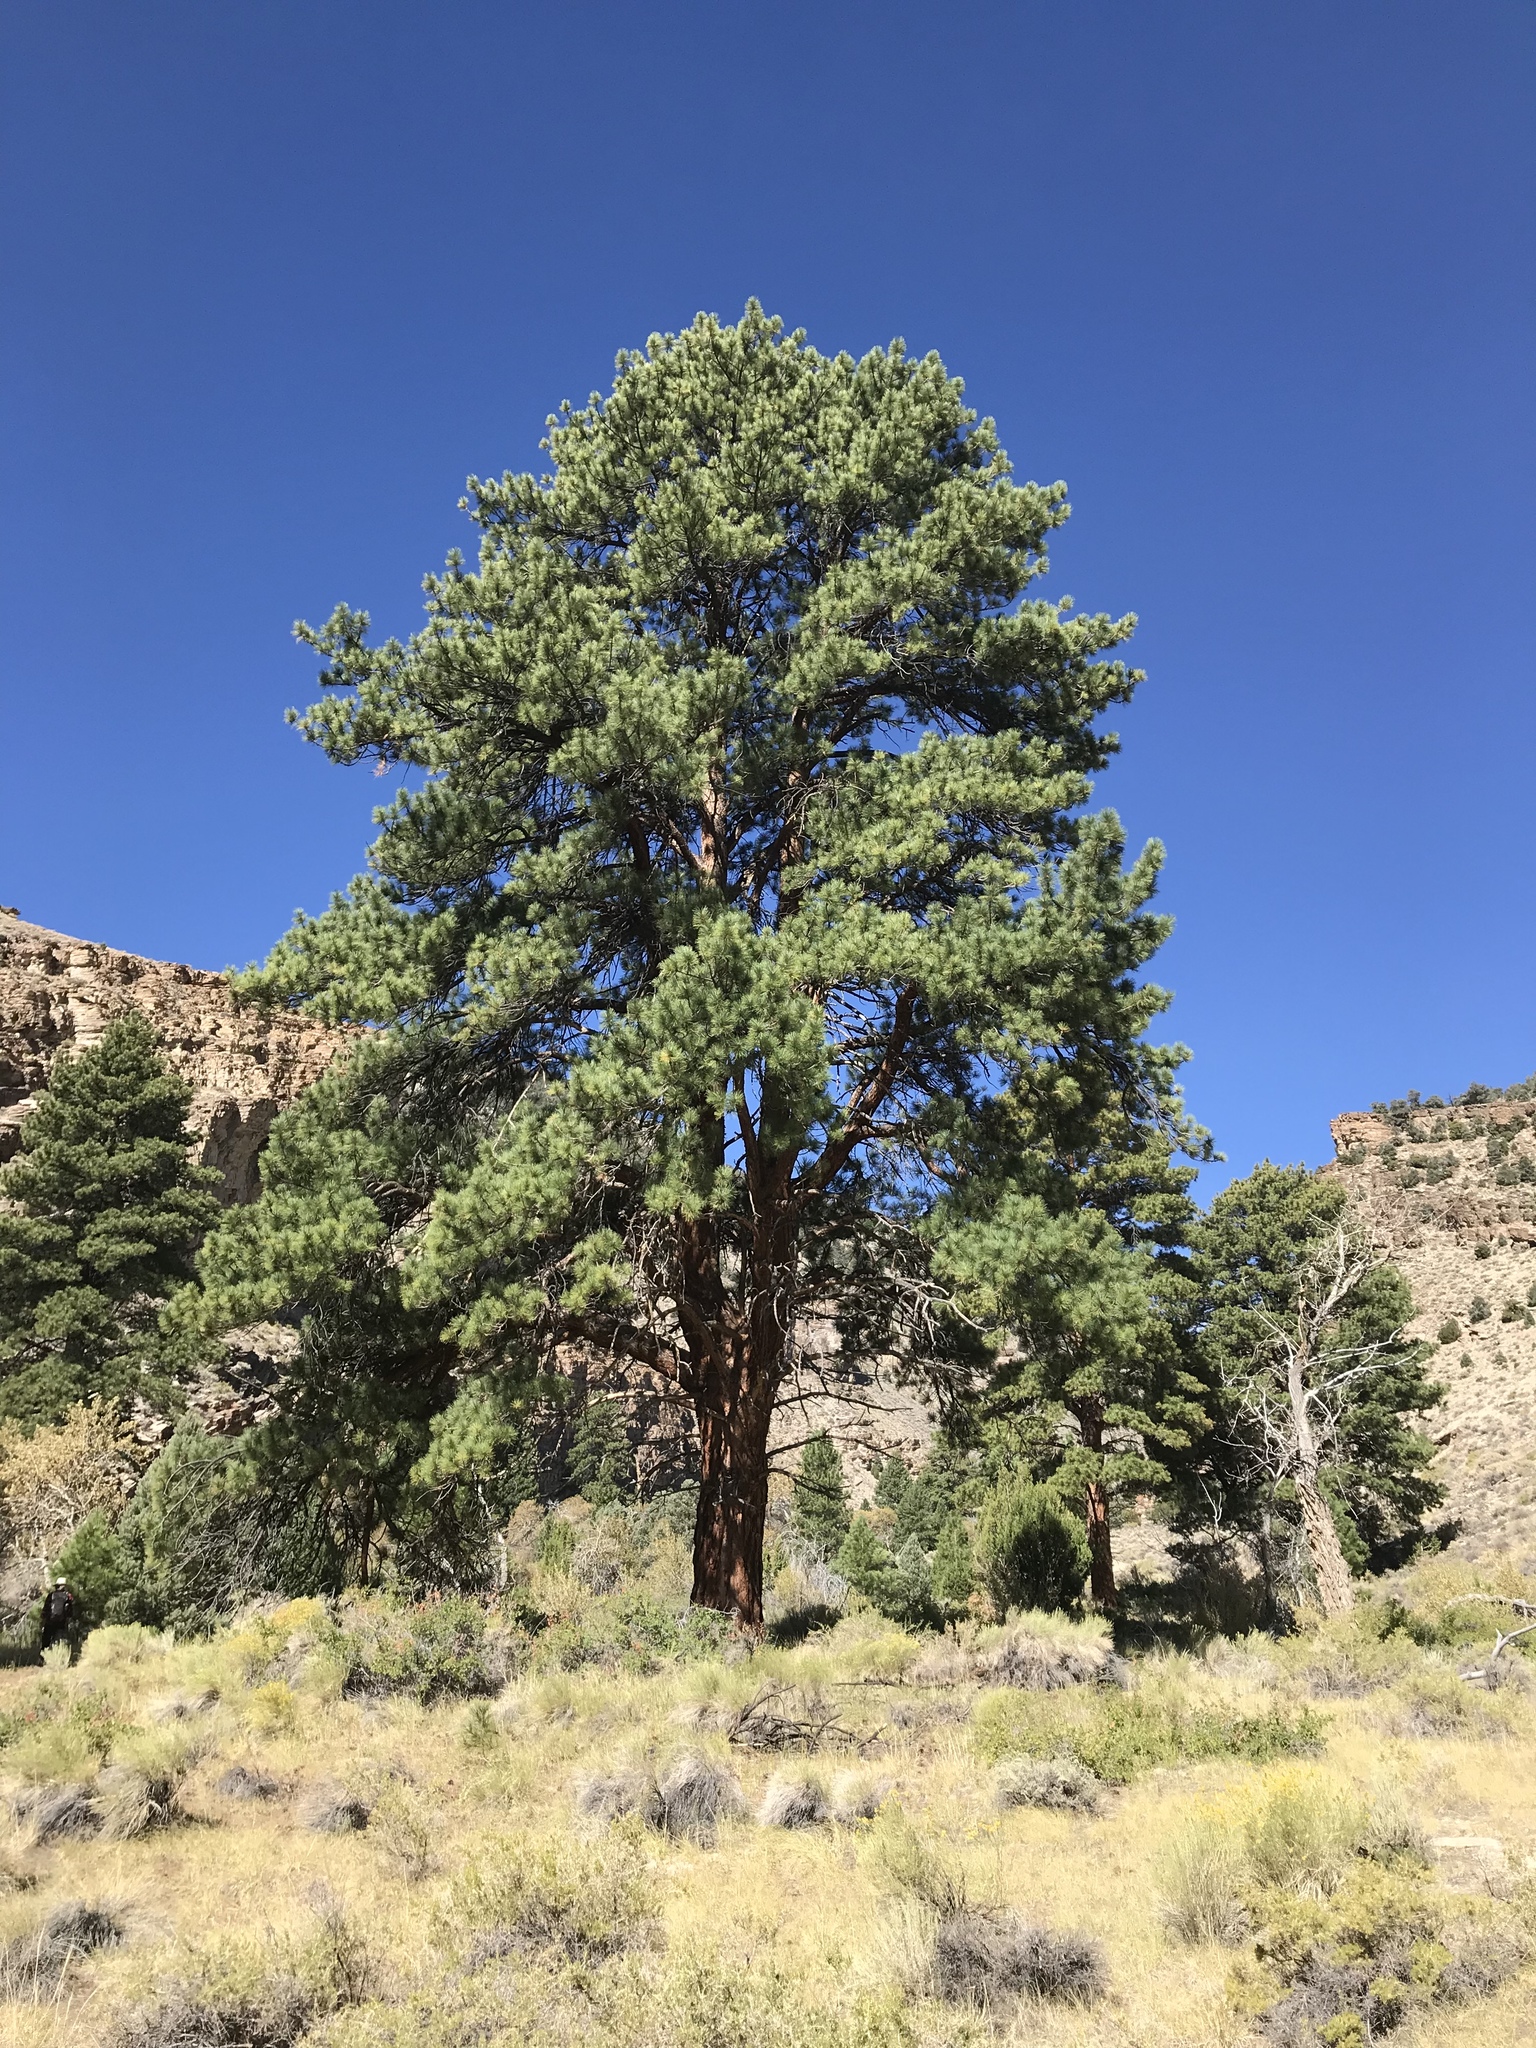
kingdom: Plantae
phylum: Tracheophyta
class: Pinopsida
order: Pinales
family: Pinaceae
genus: Pinus
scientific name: Pinus ponderosa
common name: Western yellow-pine
